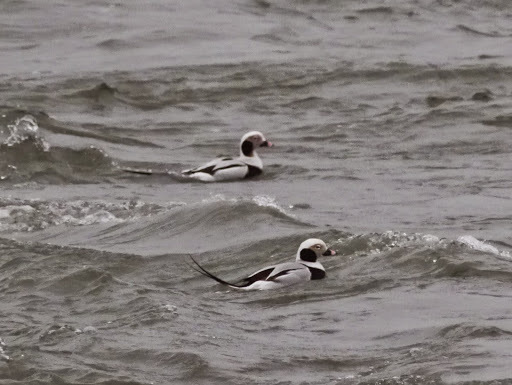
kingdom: Animalia
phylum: Chordata
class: Aves
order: Anseriformes
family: Anatidae
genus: Clangula
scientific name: Clangula hyemalis
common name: Long-tailed duck
